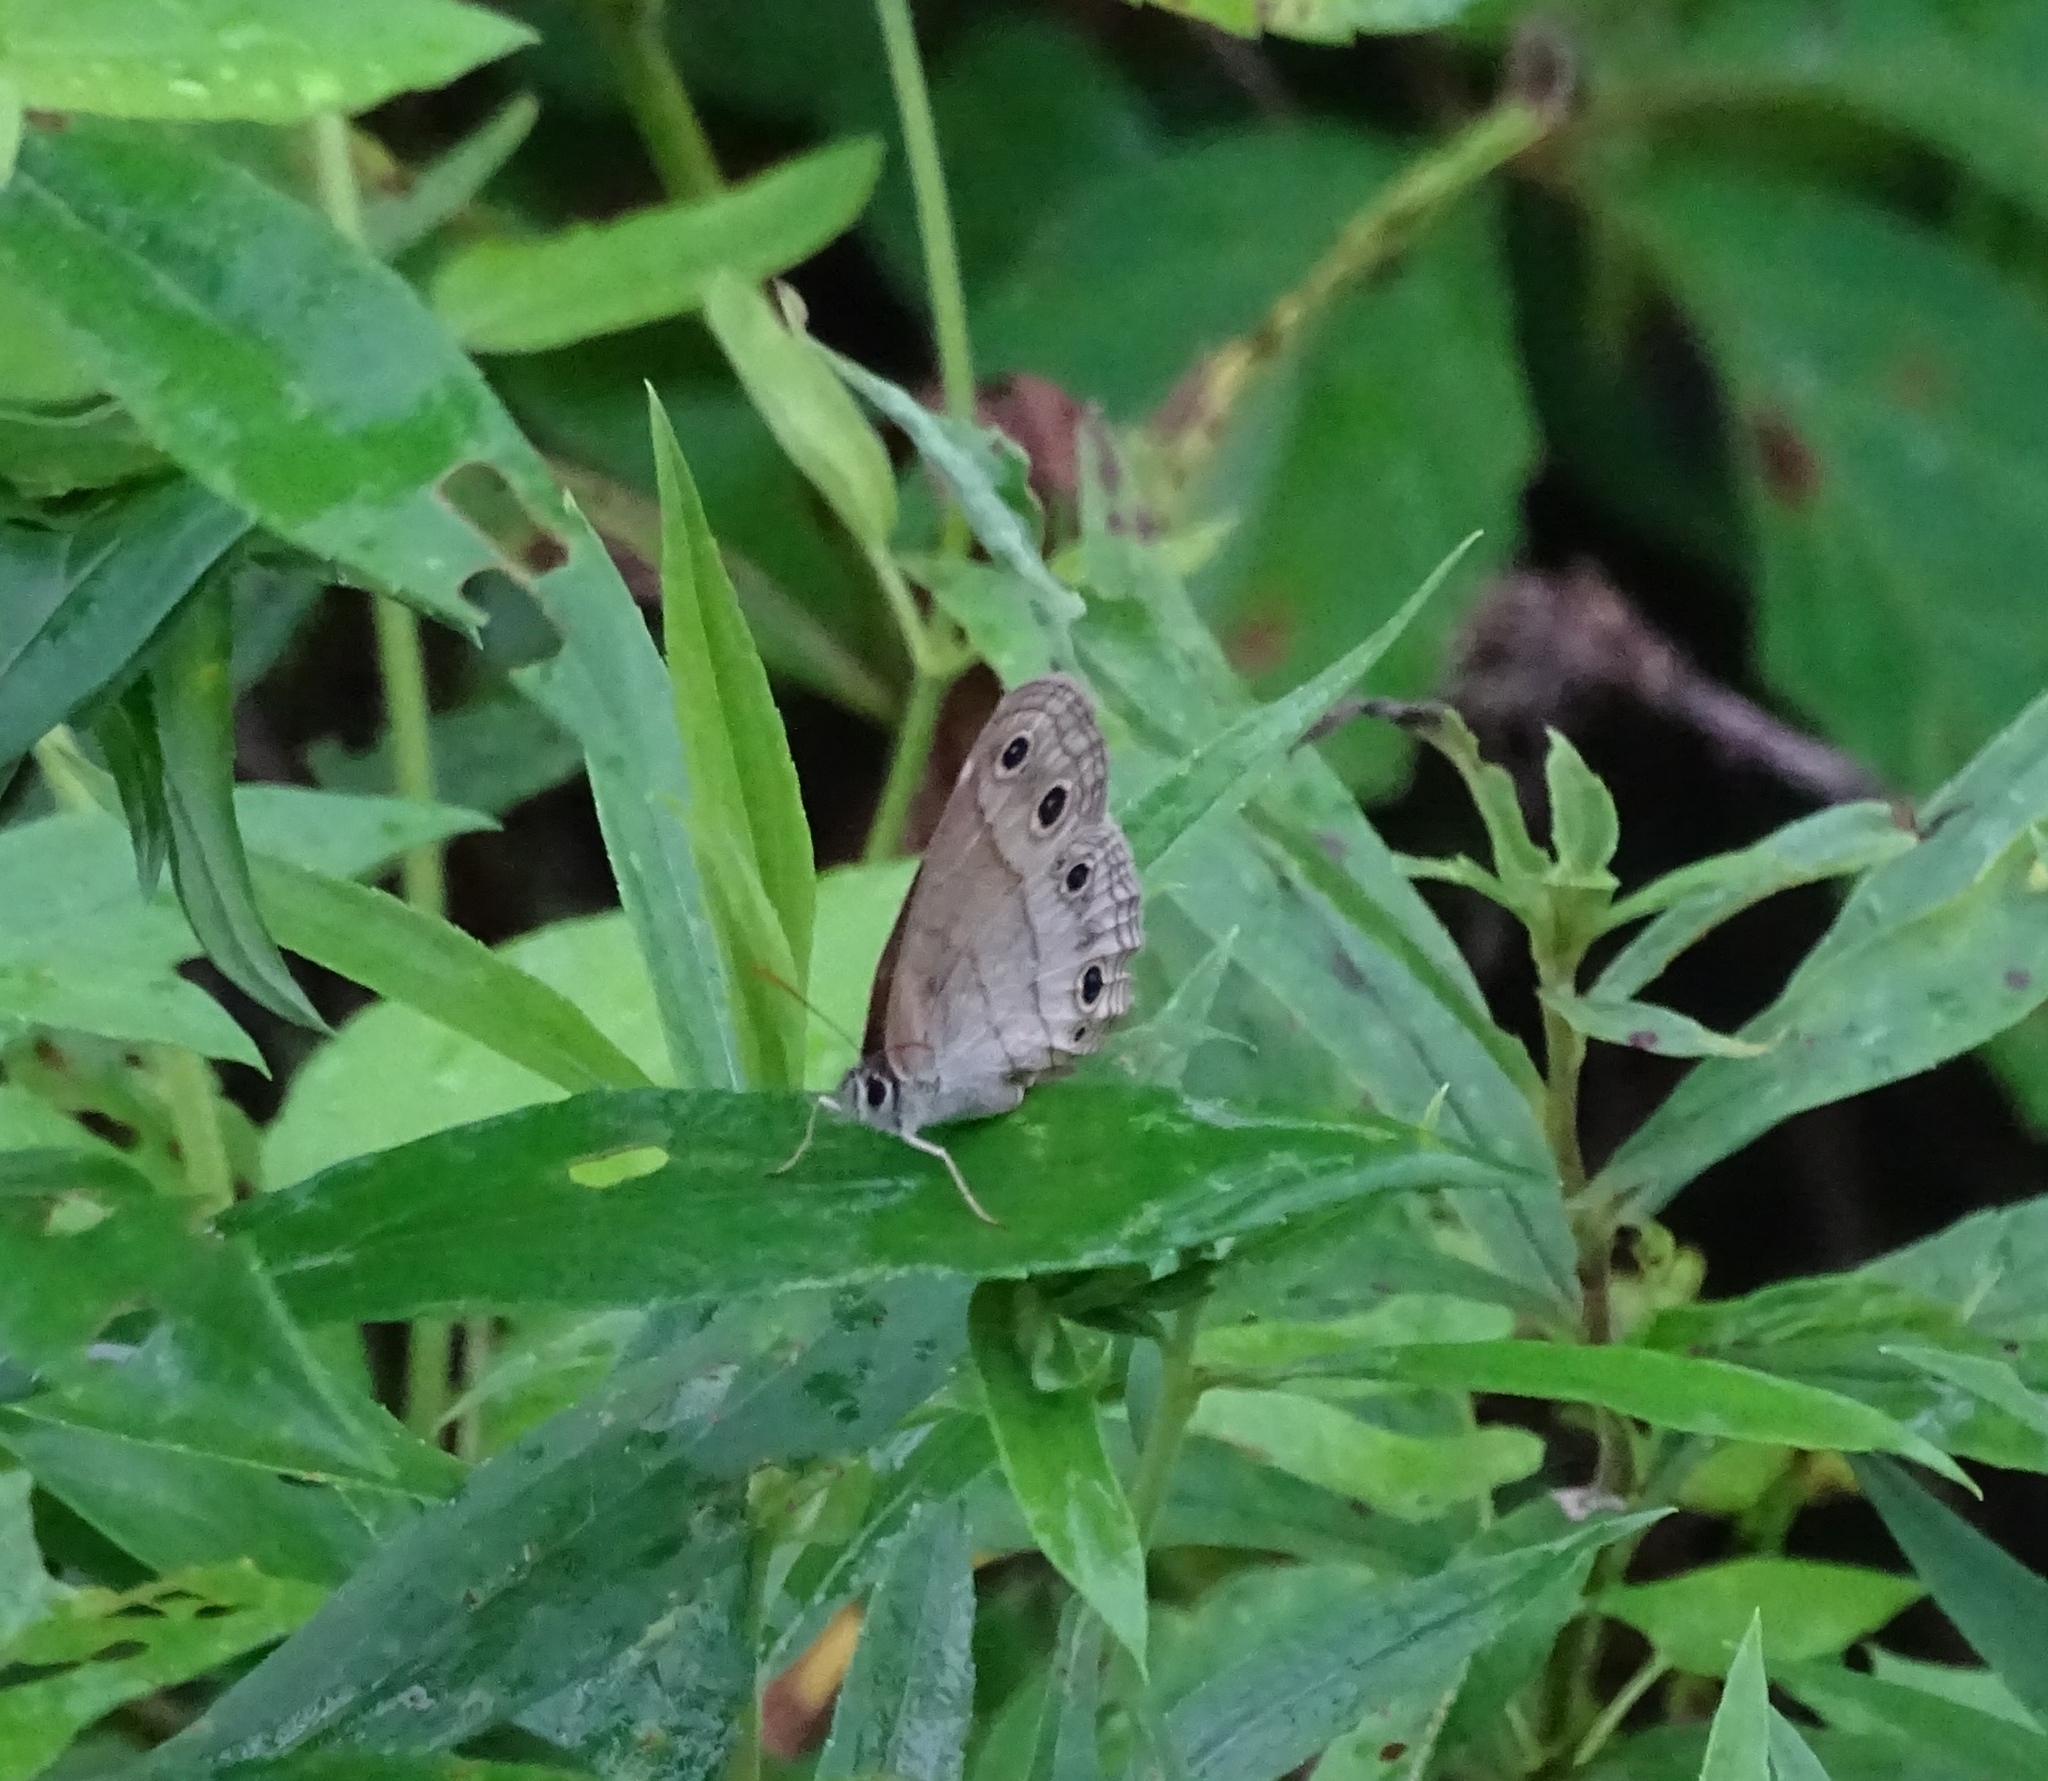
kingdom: Animalia
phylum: Arthropoda
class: Insecta
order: Lepidoptera
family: Nymphalidae
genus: Euptychia
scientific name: Euptychia cymela
